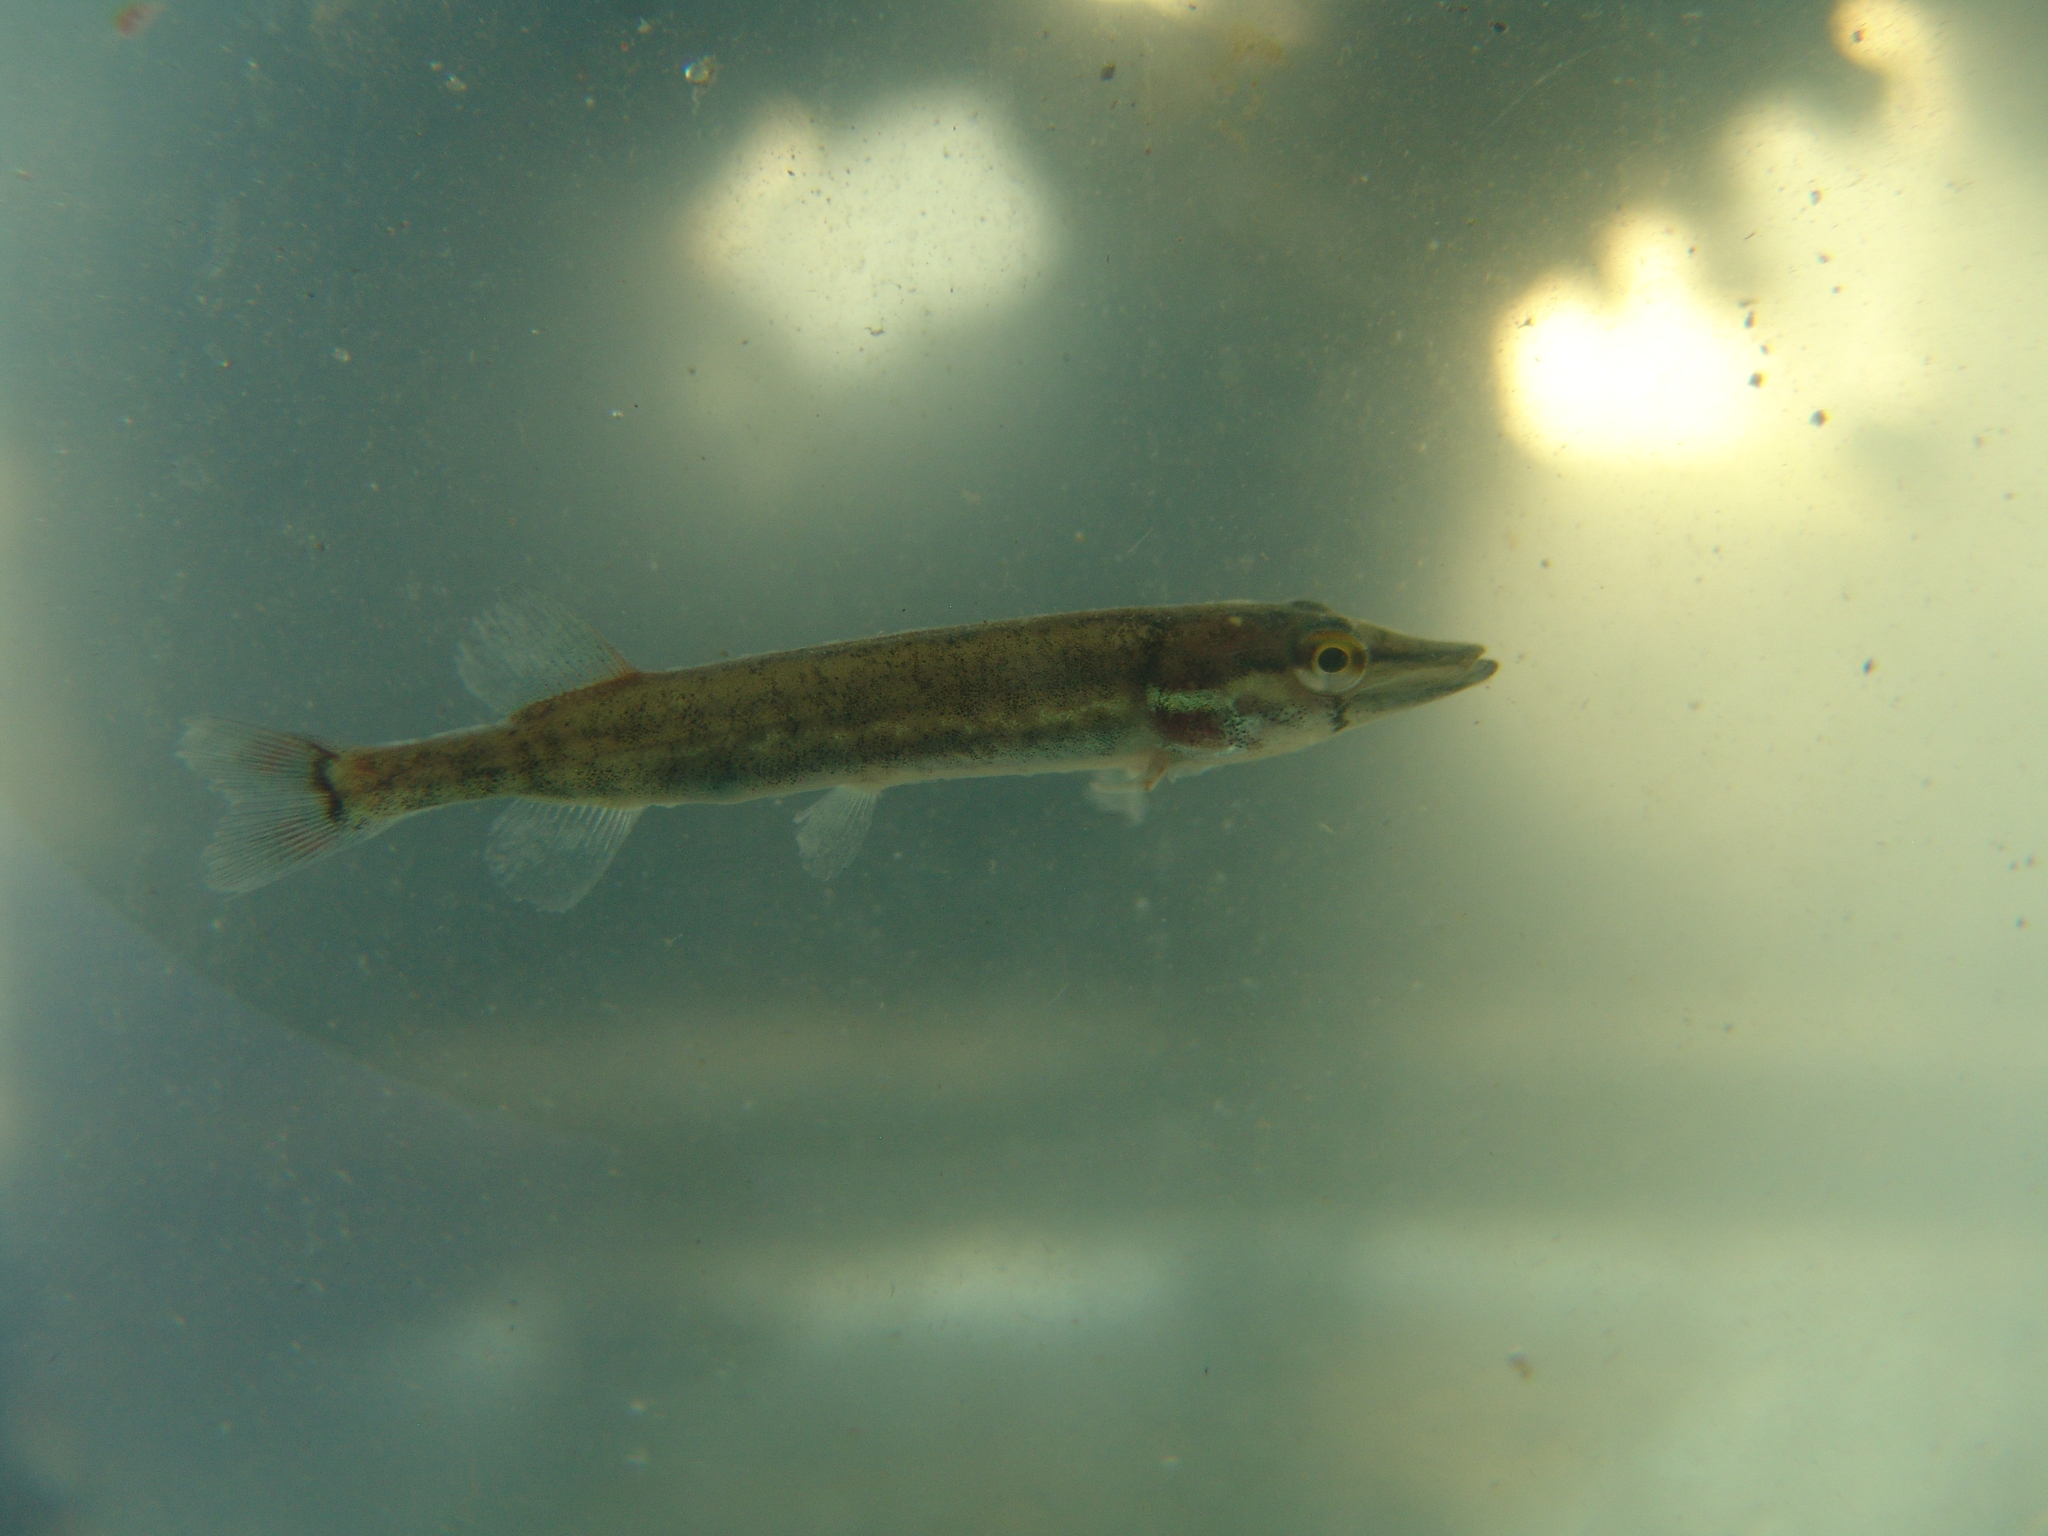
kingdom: Animalia
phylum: Chordata
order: Esociformes
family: Esocidae
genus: Esox
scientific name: Esox americanus
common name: Redfin pickerel
